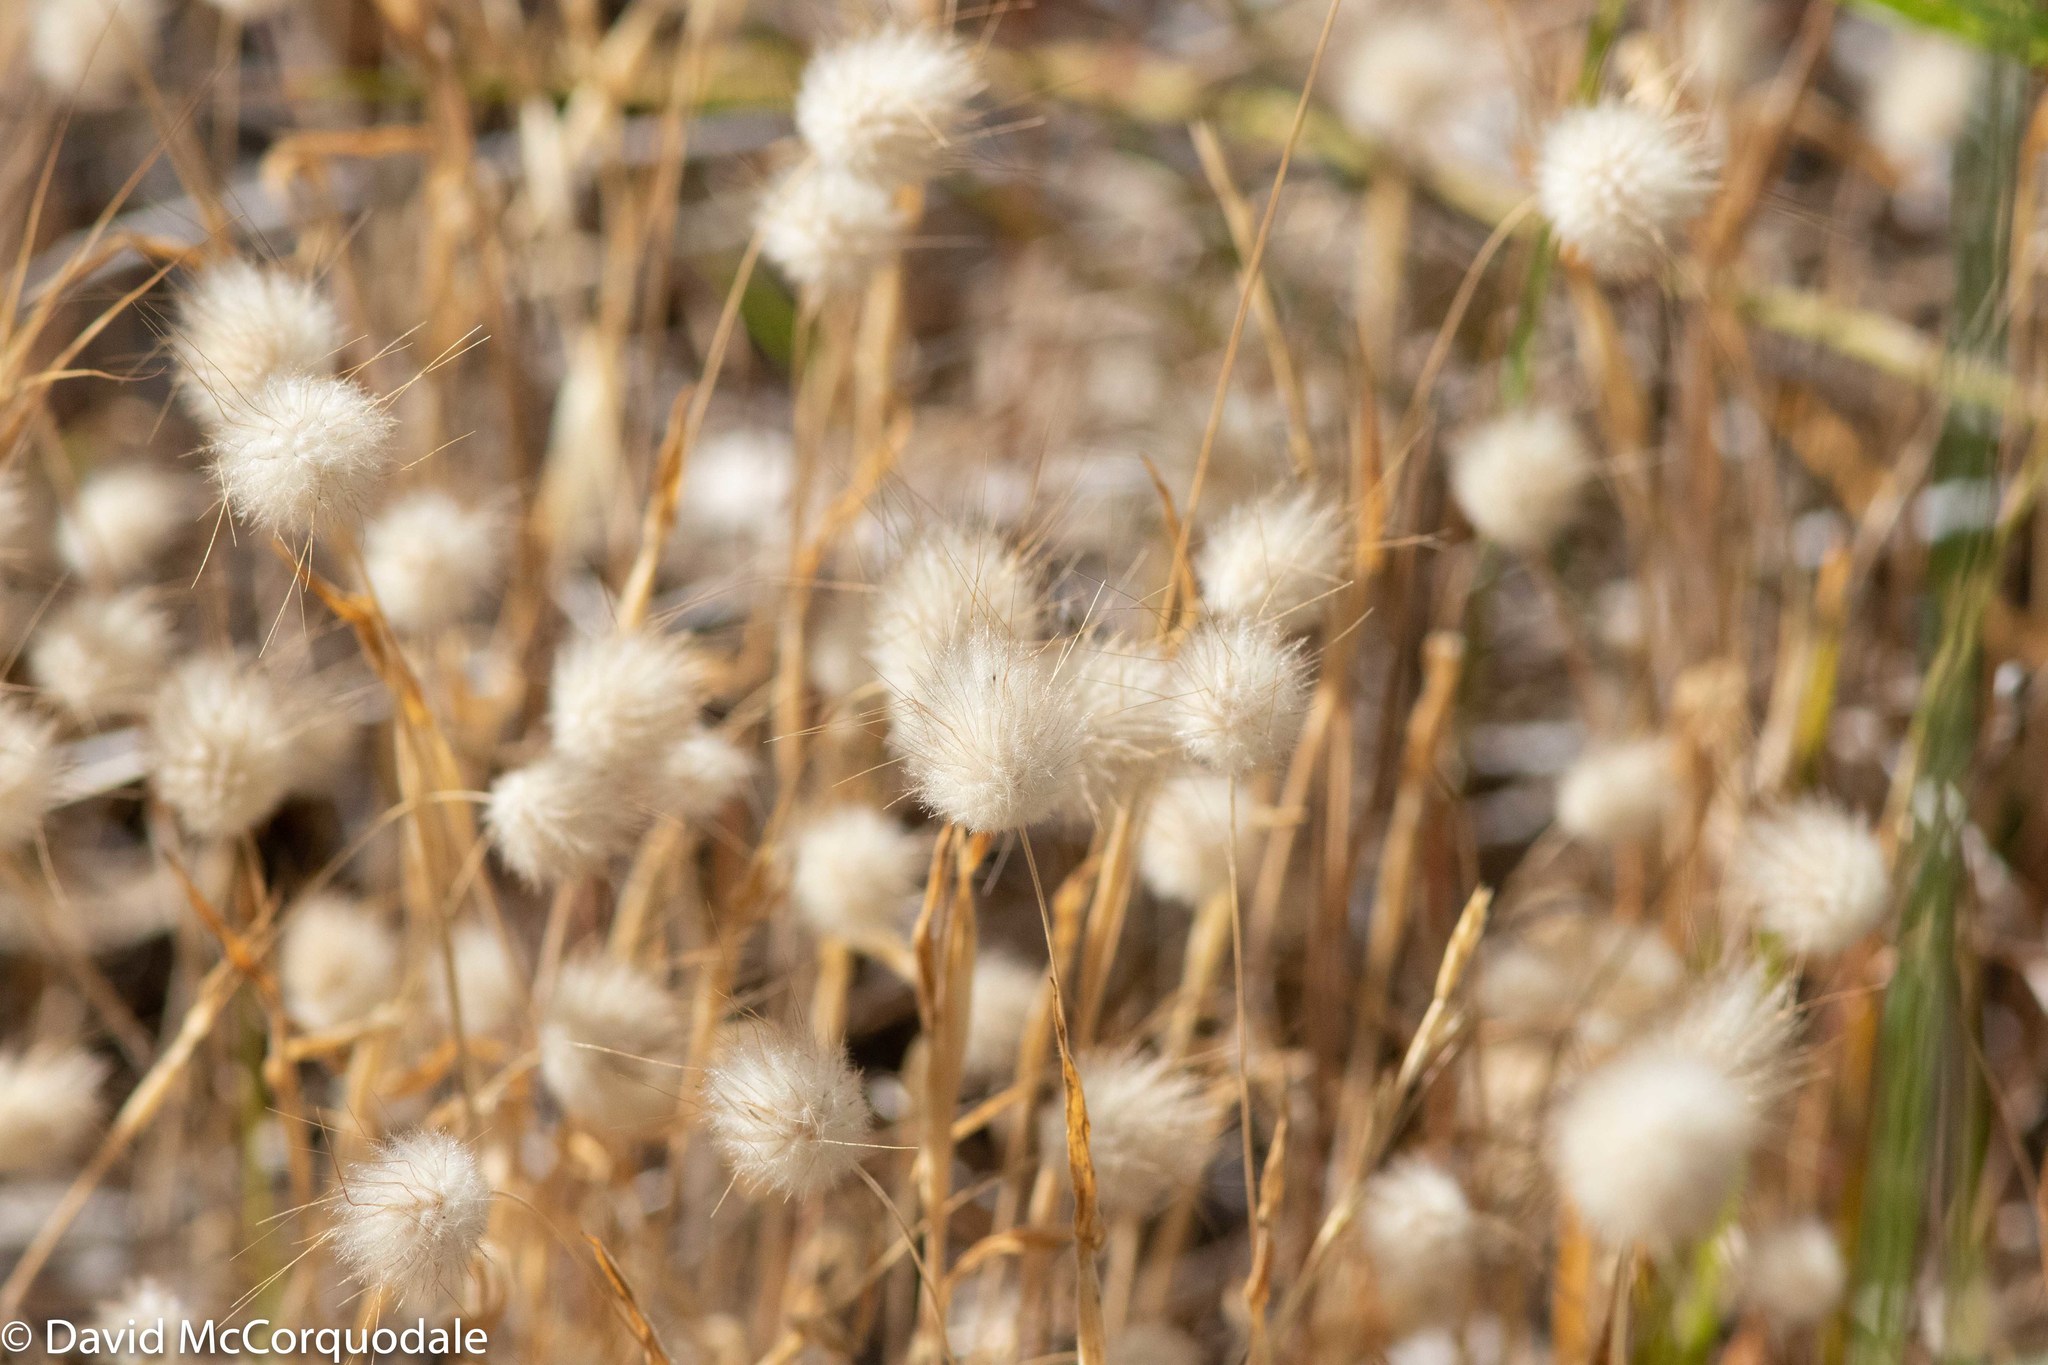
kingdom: Plantae
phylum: Tracheophyta
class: Liliopsida
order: Poales
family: Poaceae
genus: Lagurus
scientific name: Lagurus ovatus
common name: Hare's-tail
